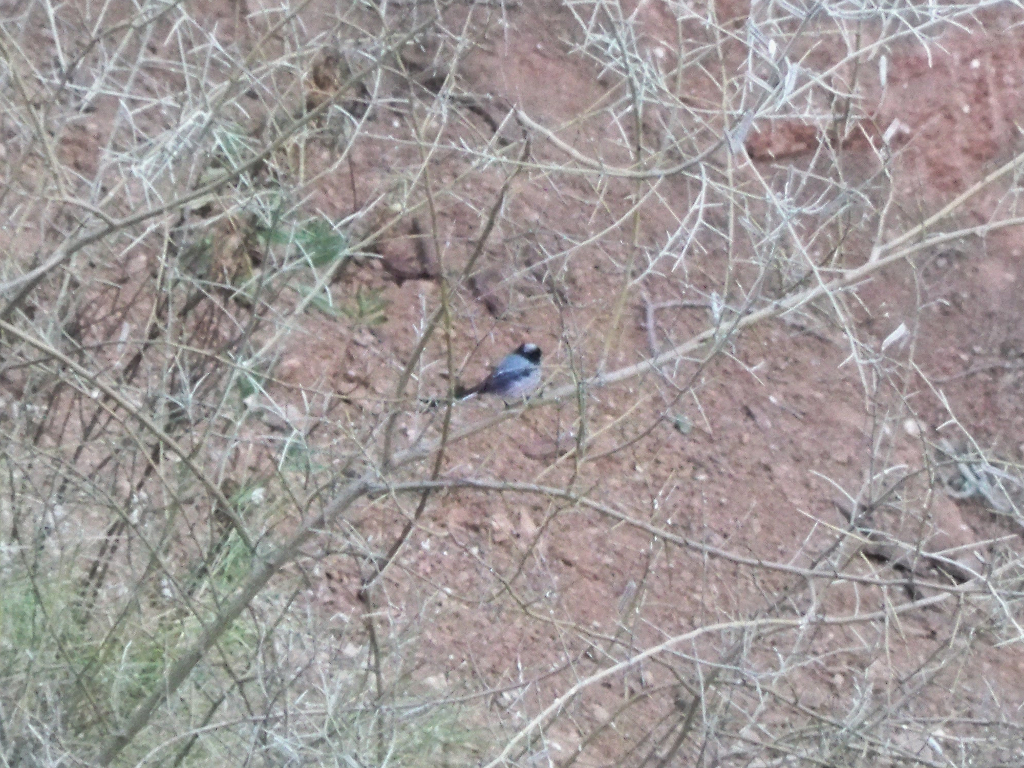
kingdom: Animalia
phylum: Chordata
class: Aves
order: Passeriformes
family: Paridae
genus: Periparus
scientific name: Periparus ater
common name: Coal tit
